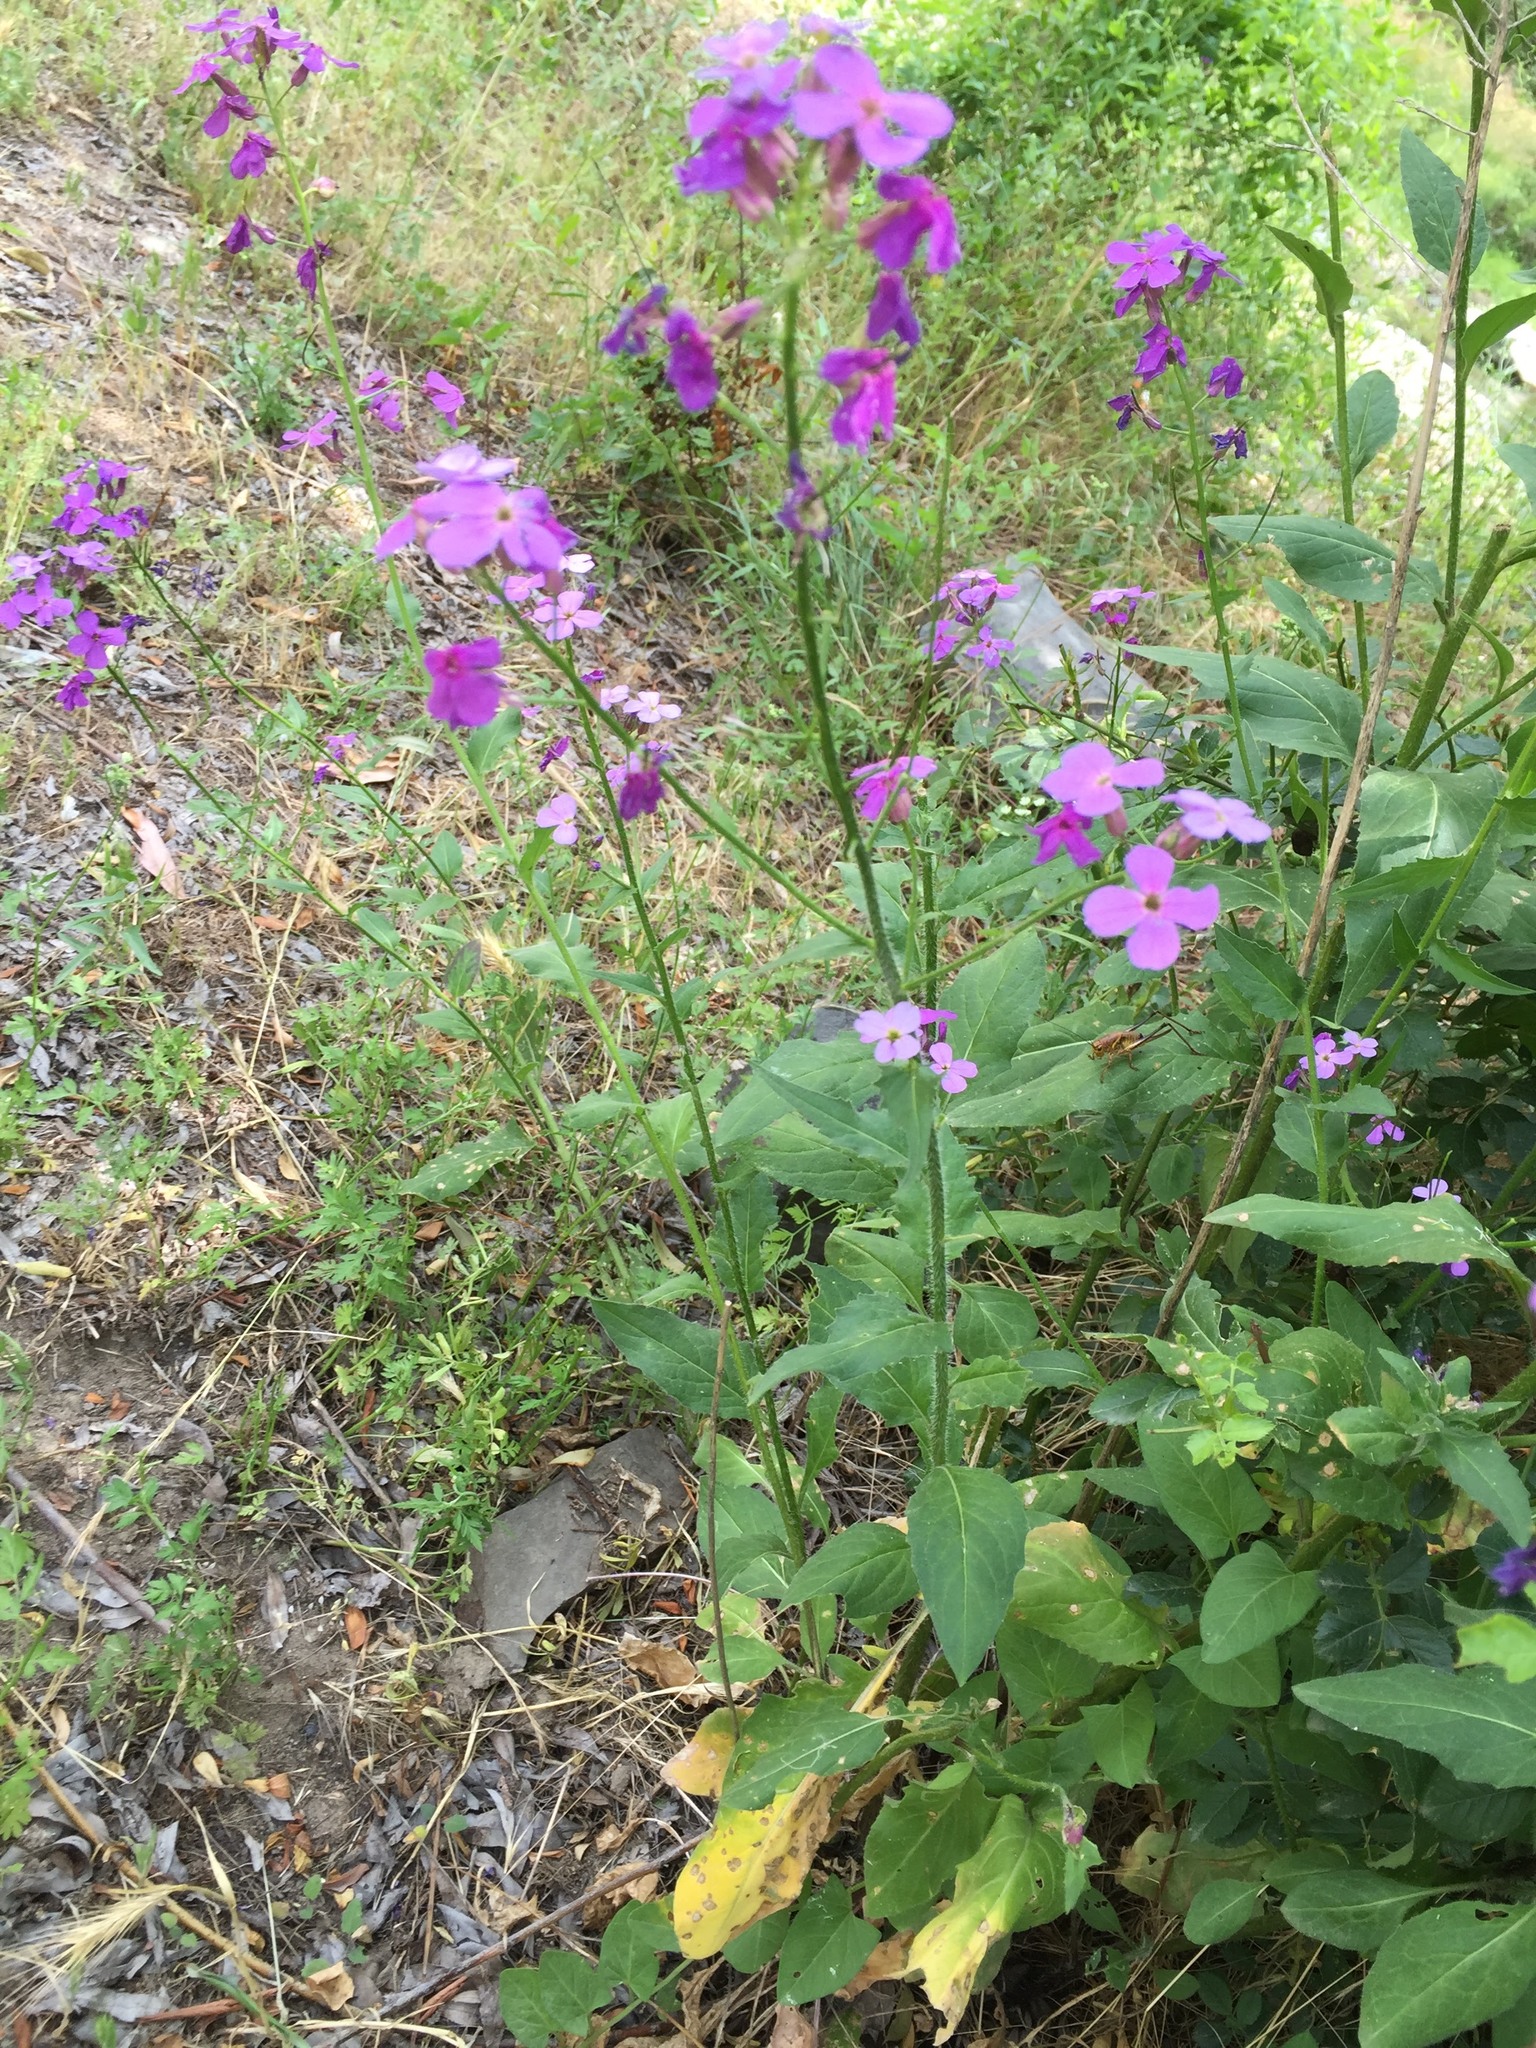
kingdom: Plantae
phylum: Tracheophyta
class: Magnoliopsida
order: Brassicales
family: Brassicaceae
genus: Hesperis
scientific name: Hesperis matronalis
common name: Dame's-violet
